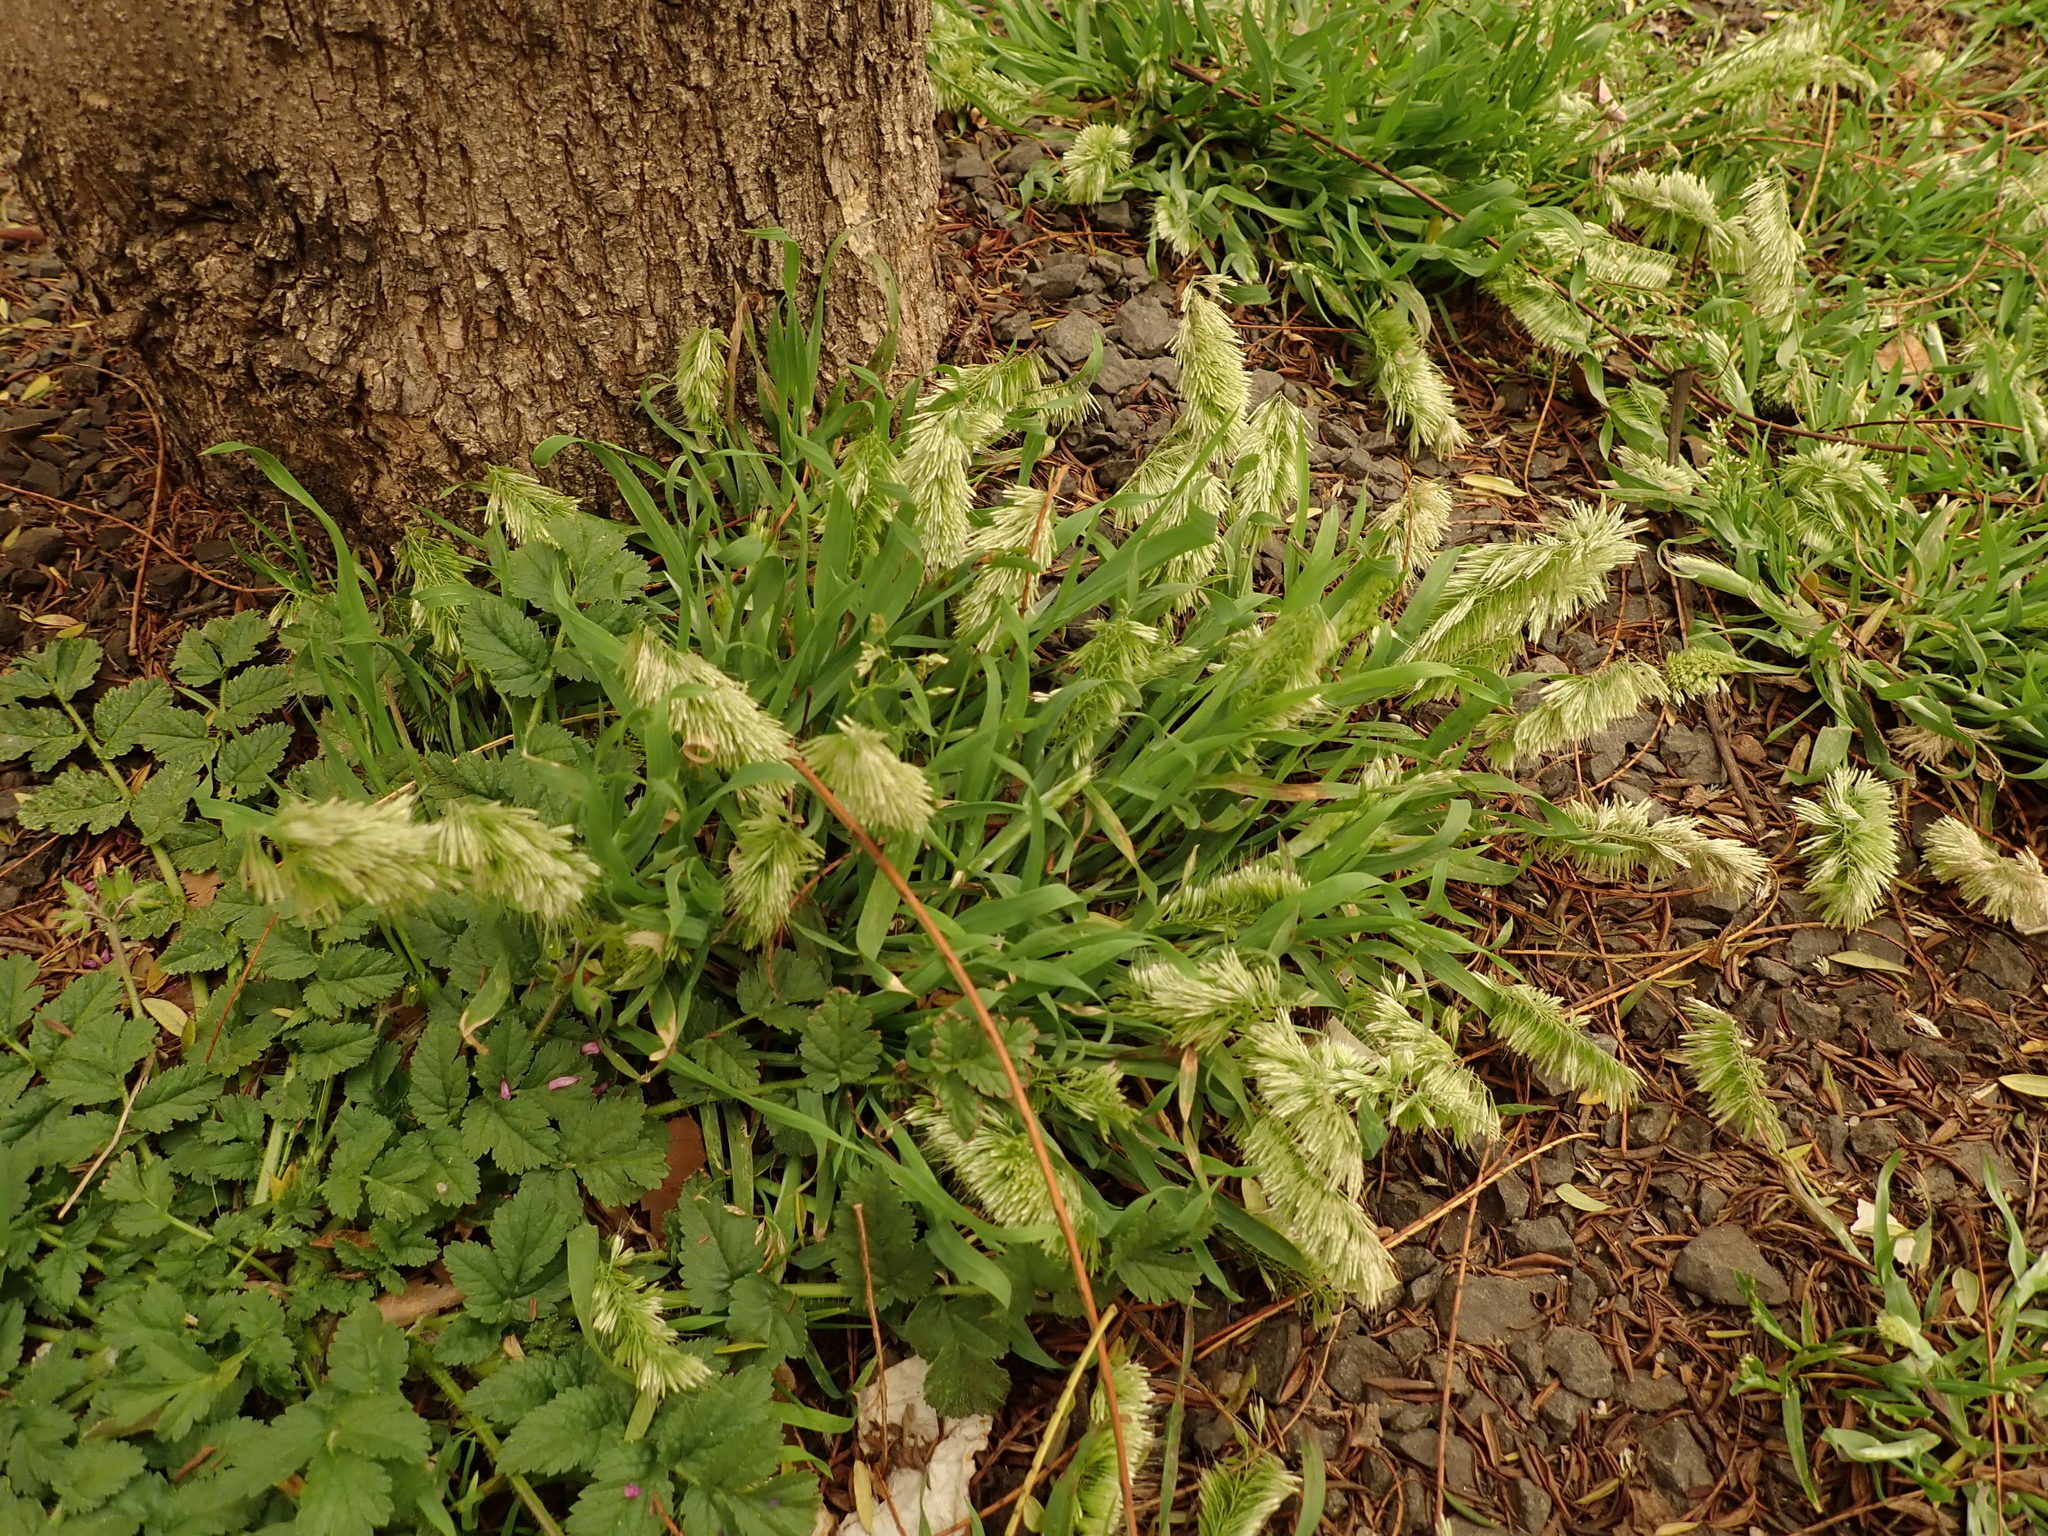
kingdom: Plantae
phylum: Tracheophyta
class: Liliopsida
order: Poales
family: Poaceae
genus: Lamarckia
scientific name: Lamarckia aurea
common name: Golden dog's-tail
